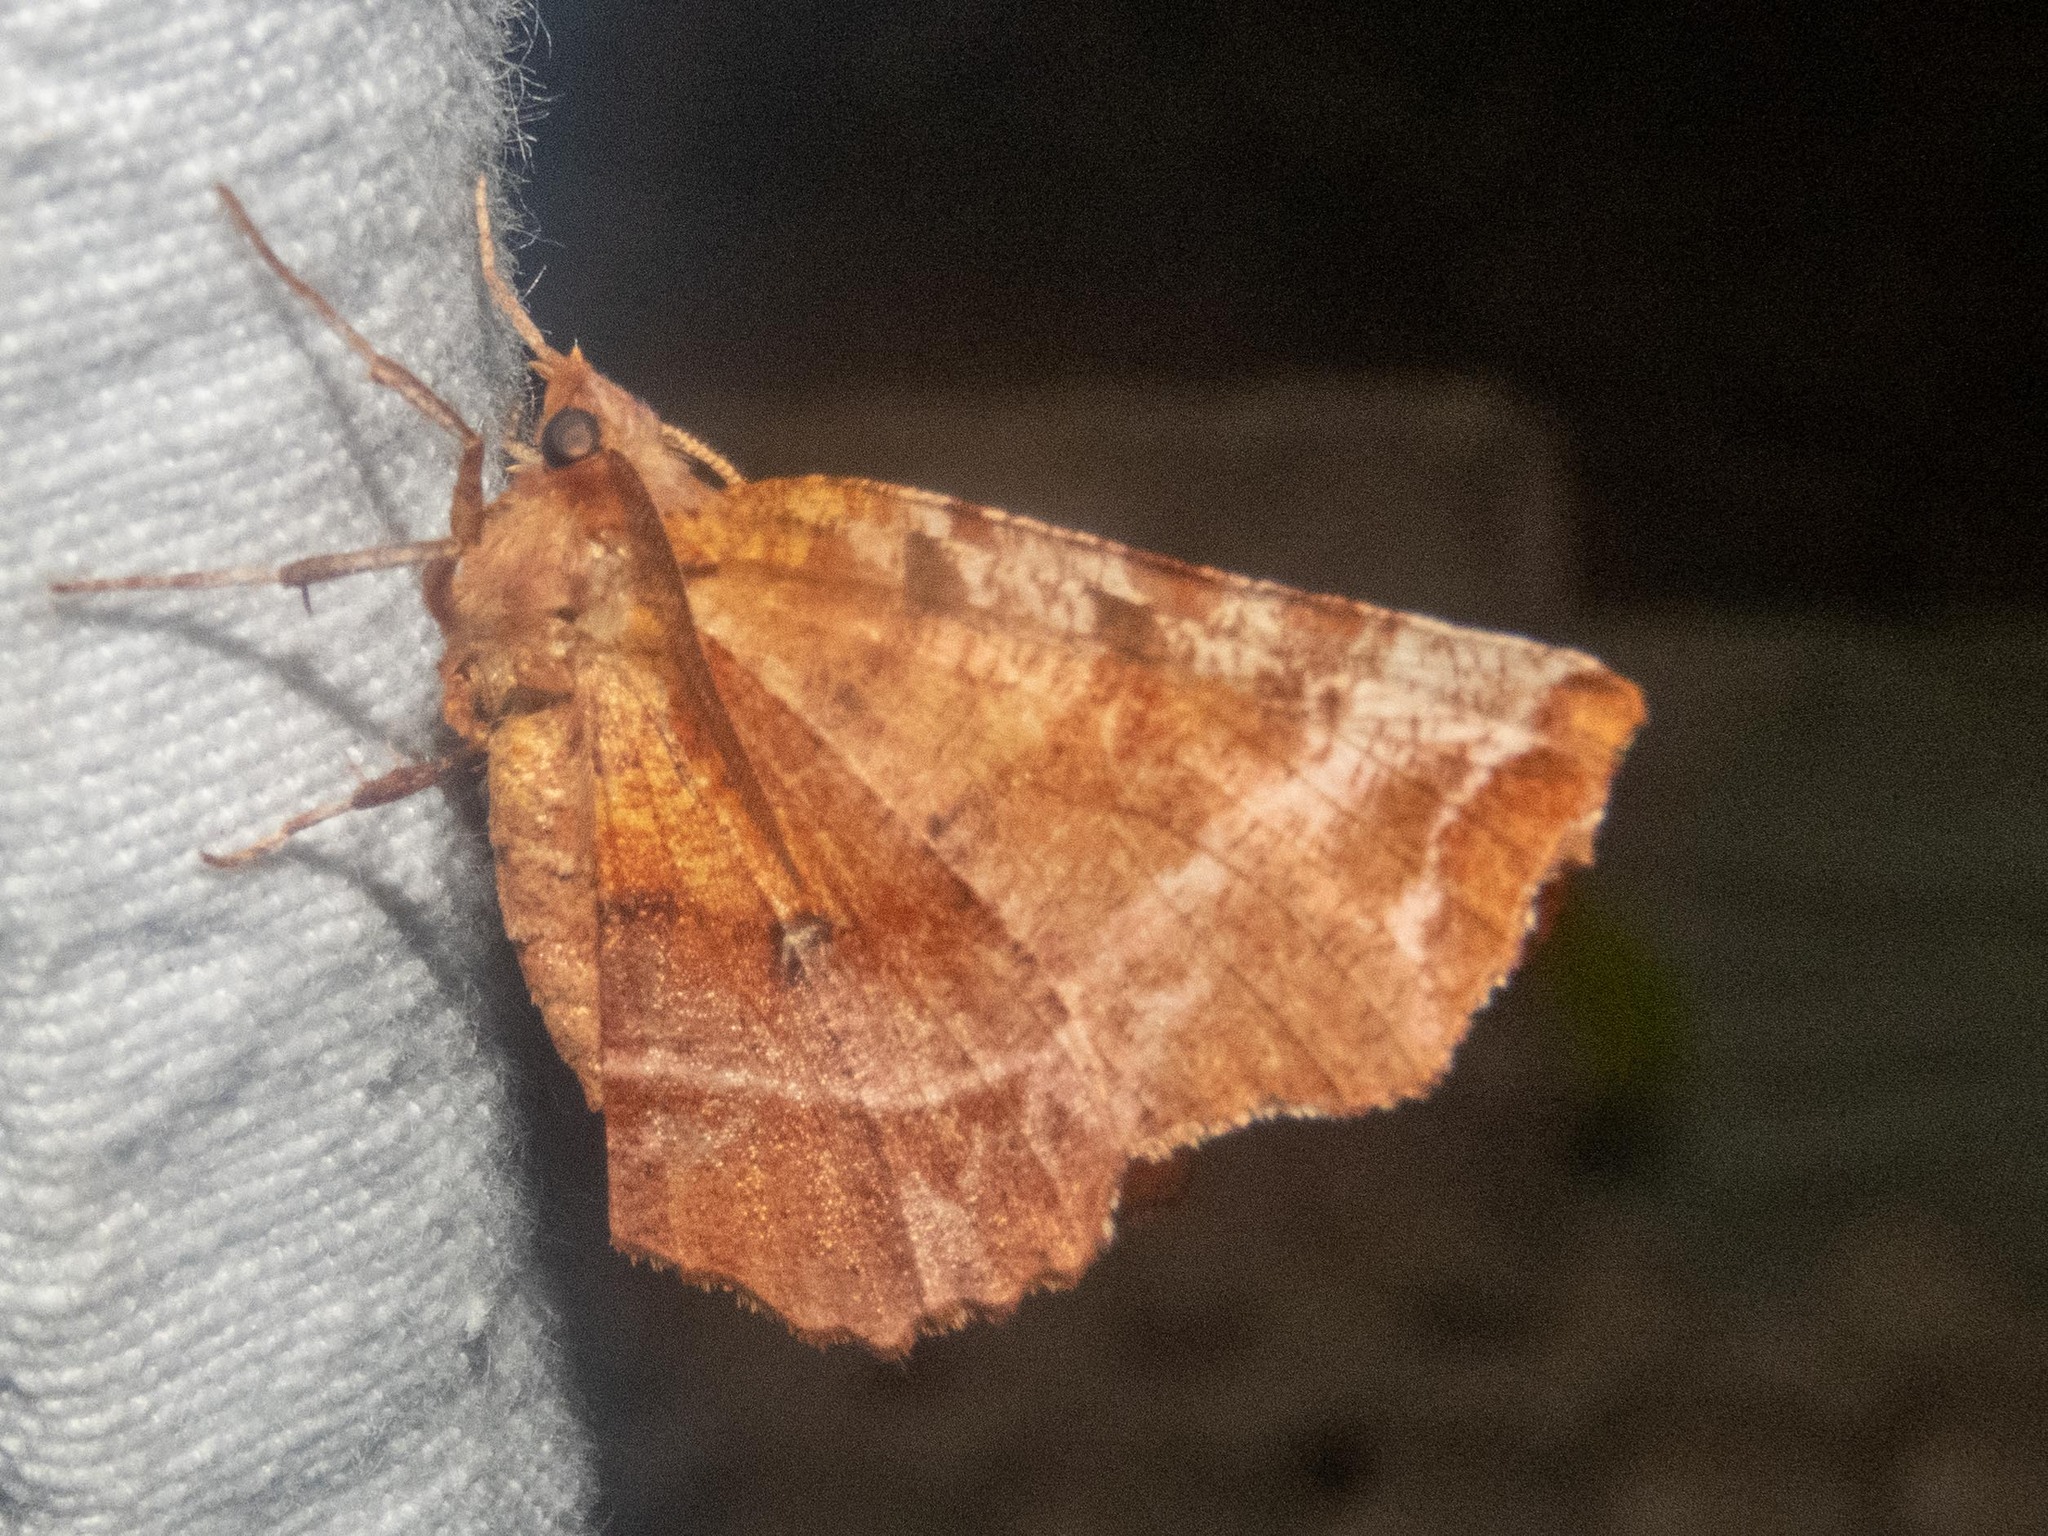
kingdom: Animalia
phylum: Arthropoda
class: Insecta
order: Lepidoptera
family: Geometridae
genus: Selenia
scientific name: Selenia dentaria
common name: Early thorn
